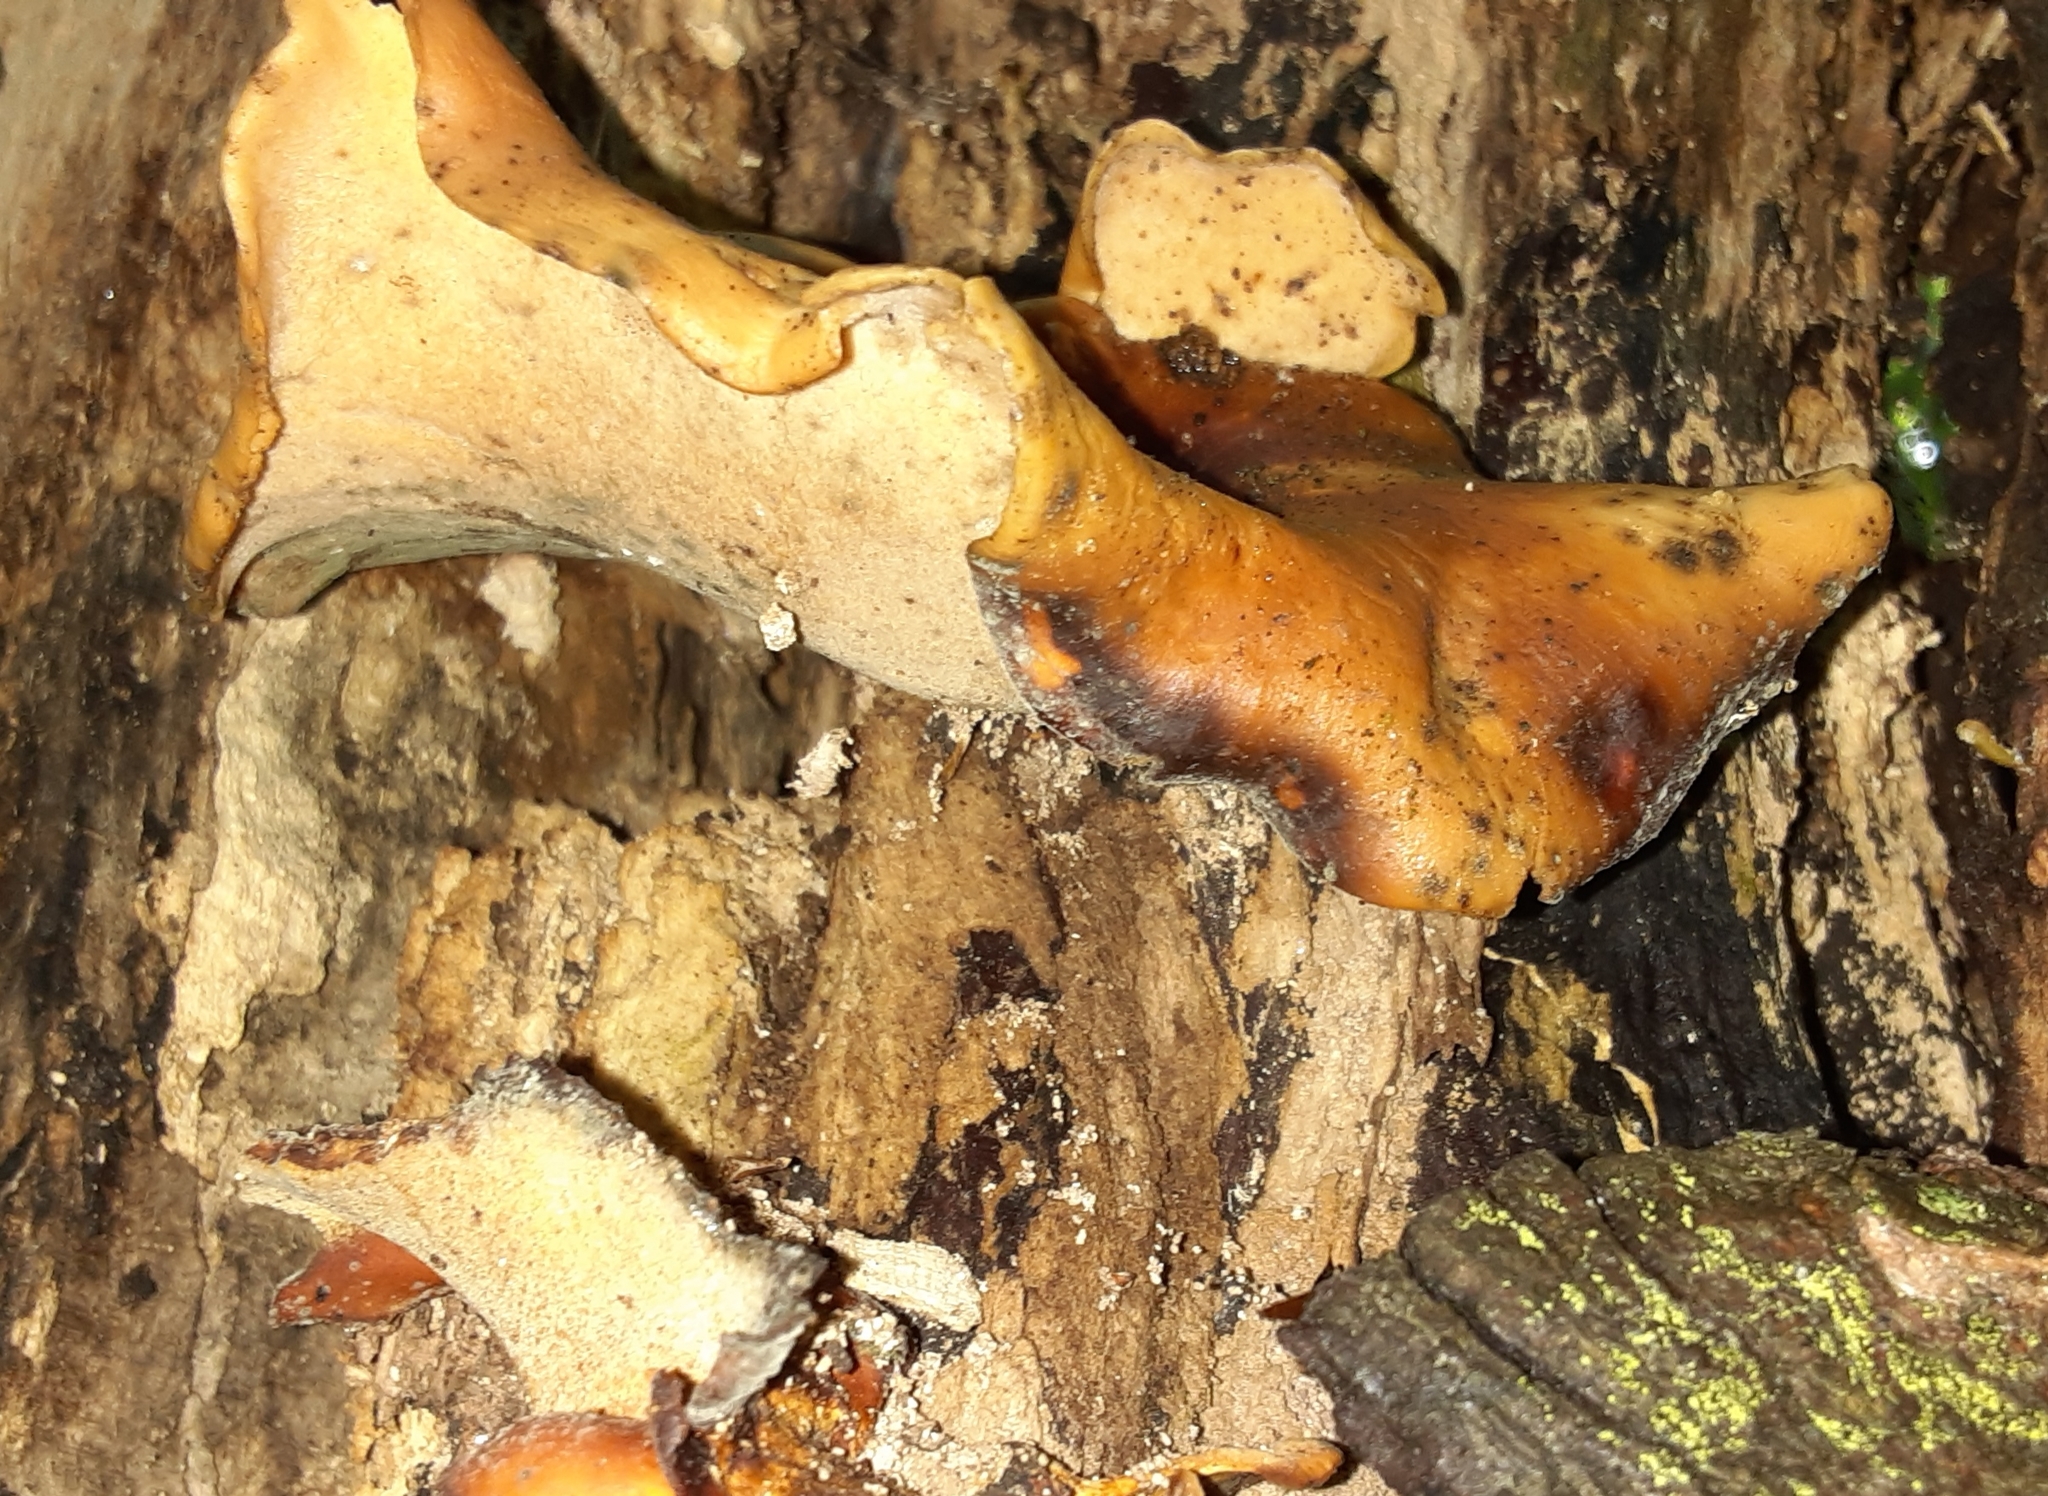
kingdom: Fungi
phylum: Basidiomycota
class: Agaricomycetes
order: Polyporales
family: Polyporaceae
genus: Picipes
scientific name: Picipes badius
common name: Bay polypore
